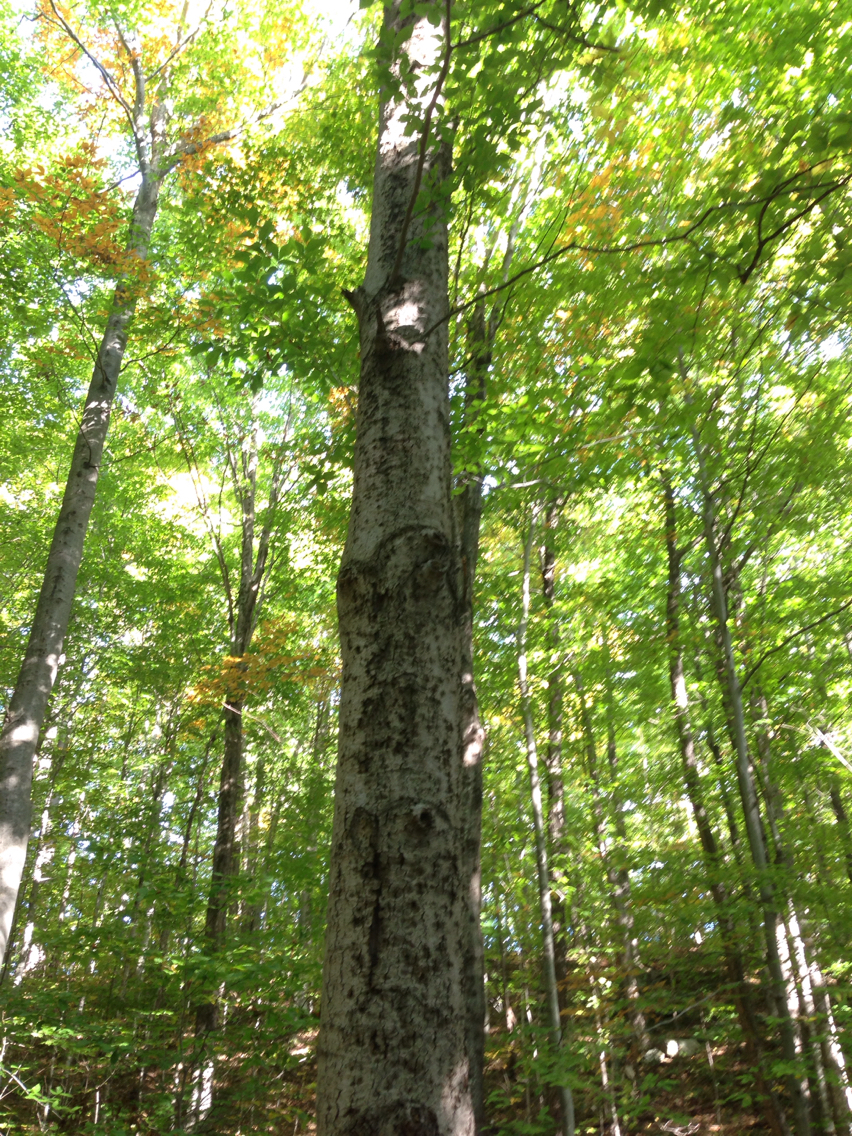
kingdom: Plantae
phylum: Tracheophyta
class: Magnoliopsida
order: Fagales
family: Fagaceae
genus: Fagus
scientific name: Fagus grandifolia
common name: American beech
